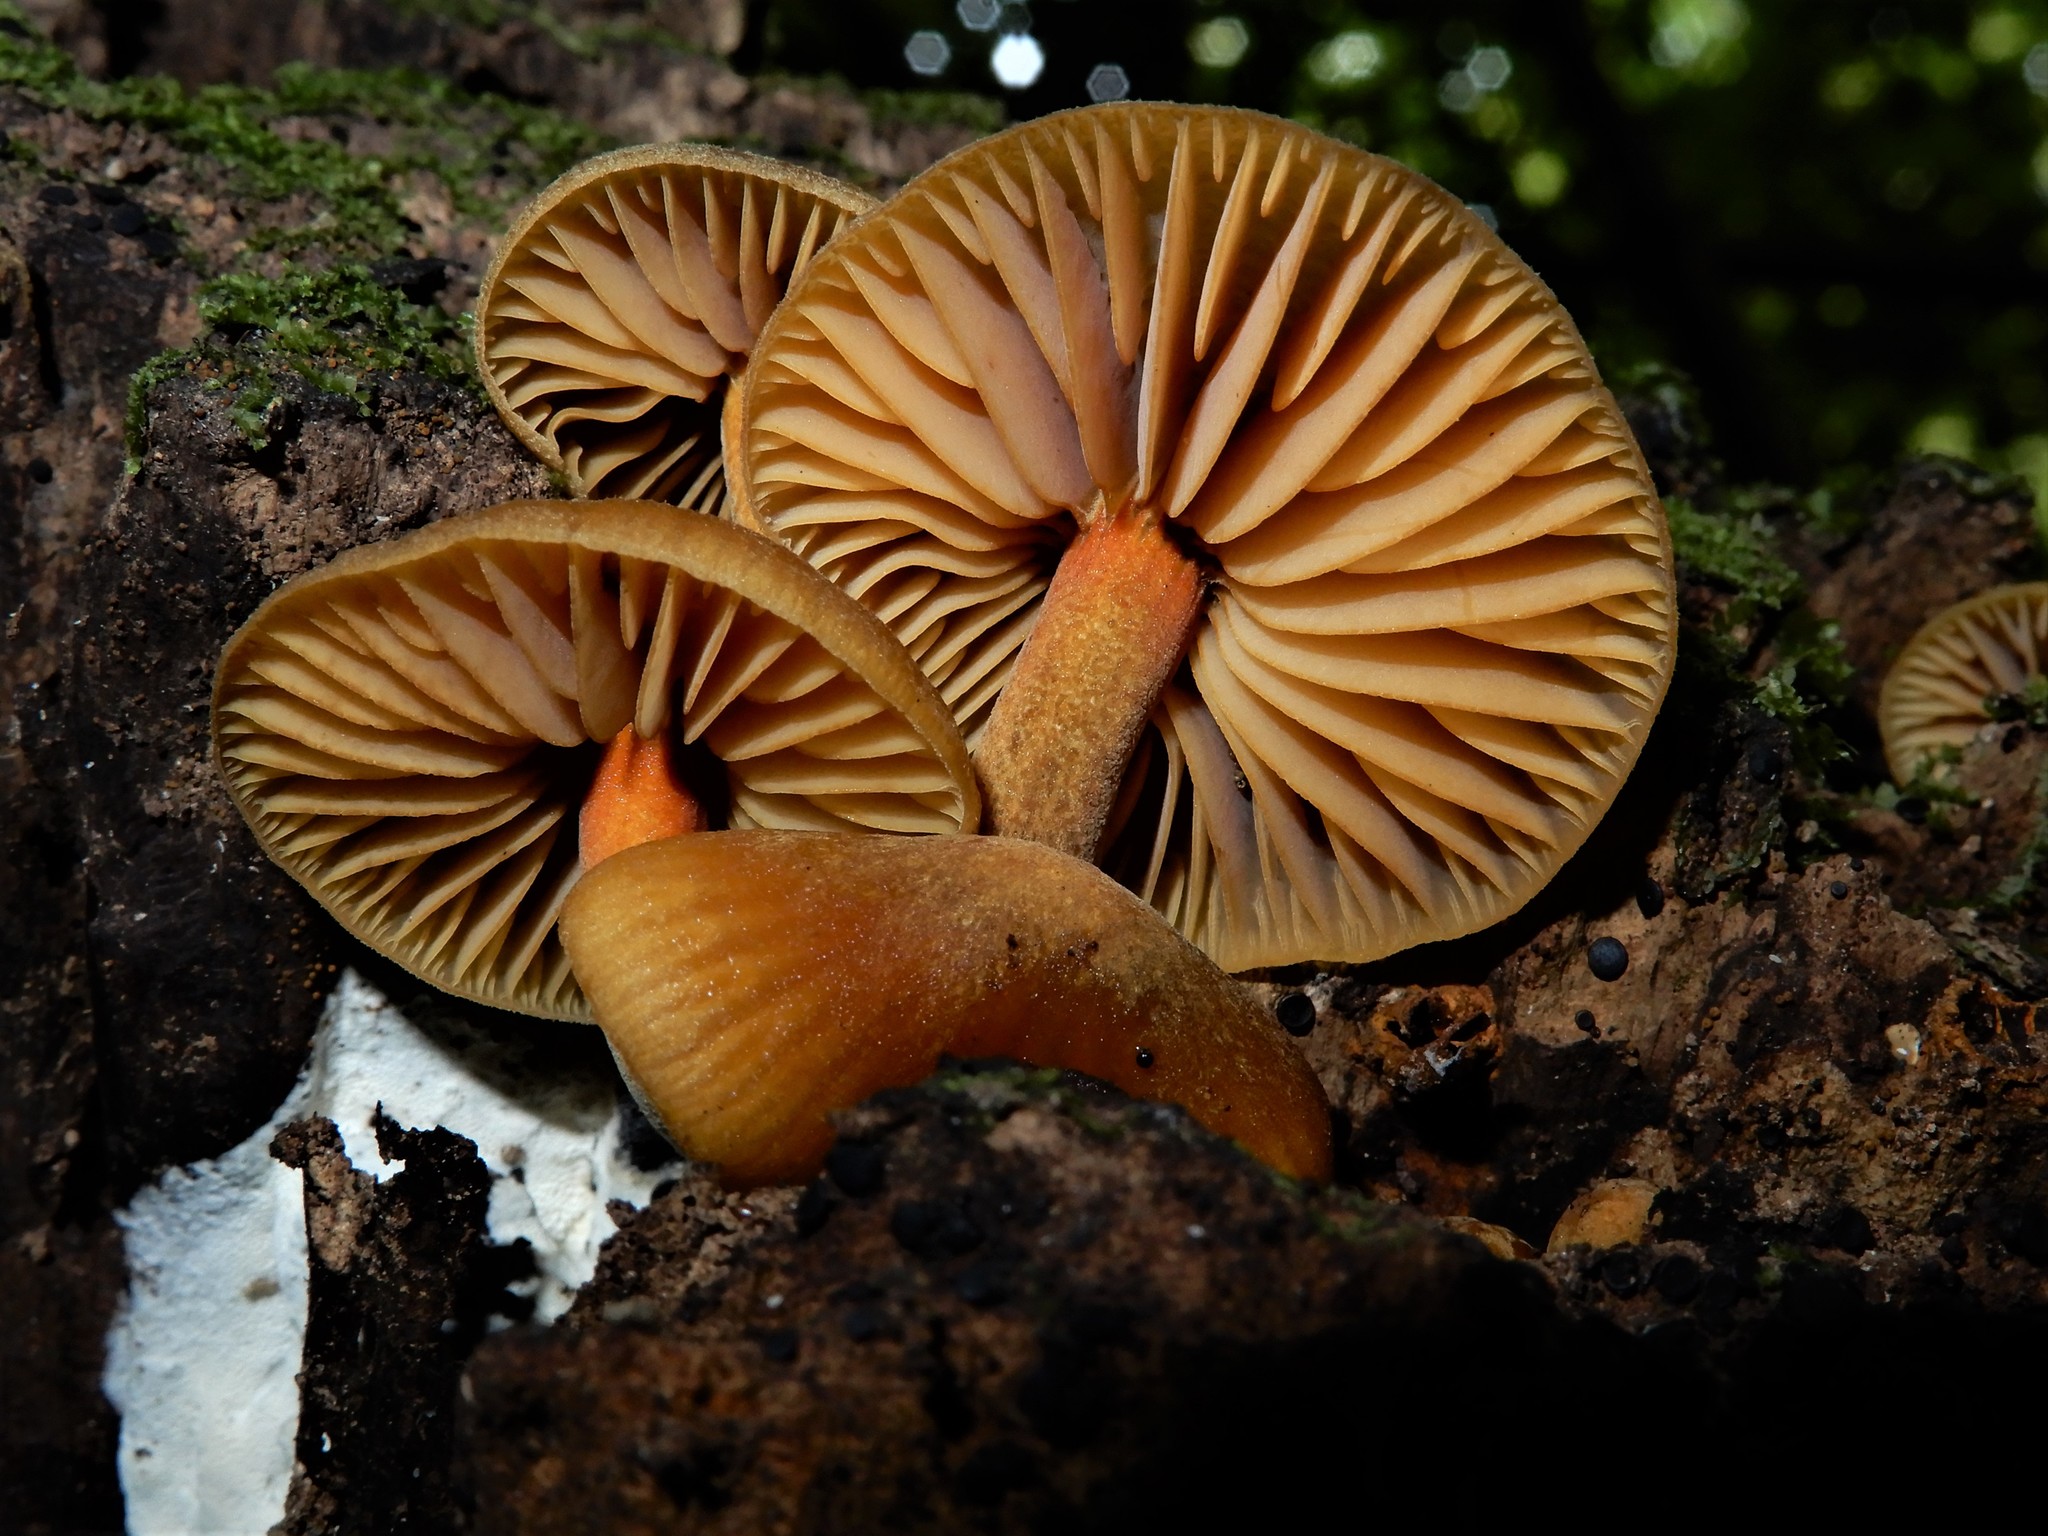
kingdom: Fungi
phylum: Basidiomycota
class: Agaricomycetes
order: Agaricales
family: Mycenaceae
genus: Heimiomyces
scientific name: Heimiomyces velutipes
